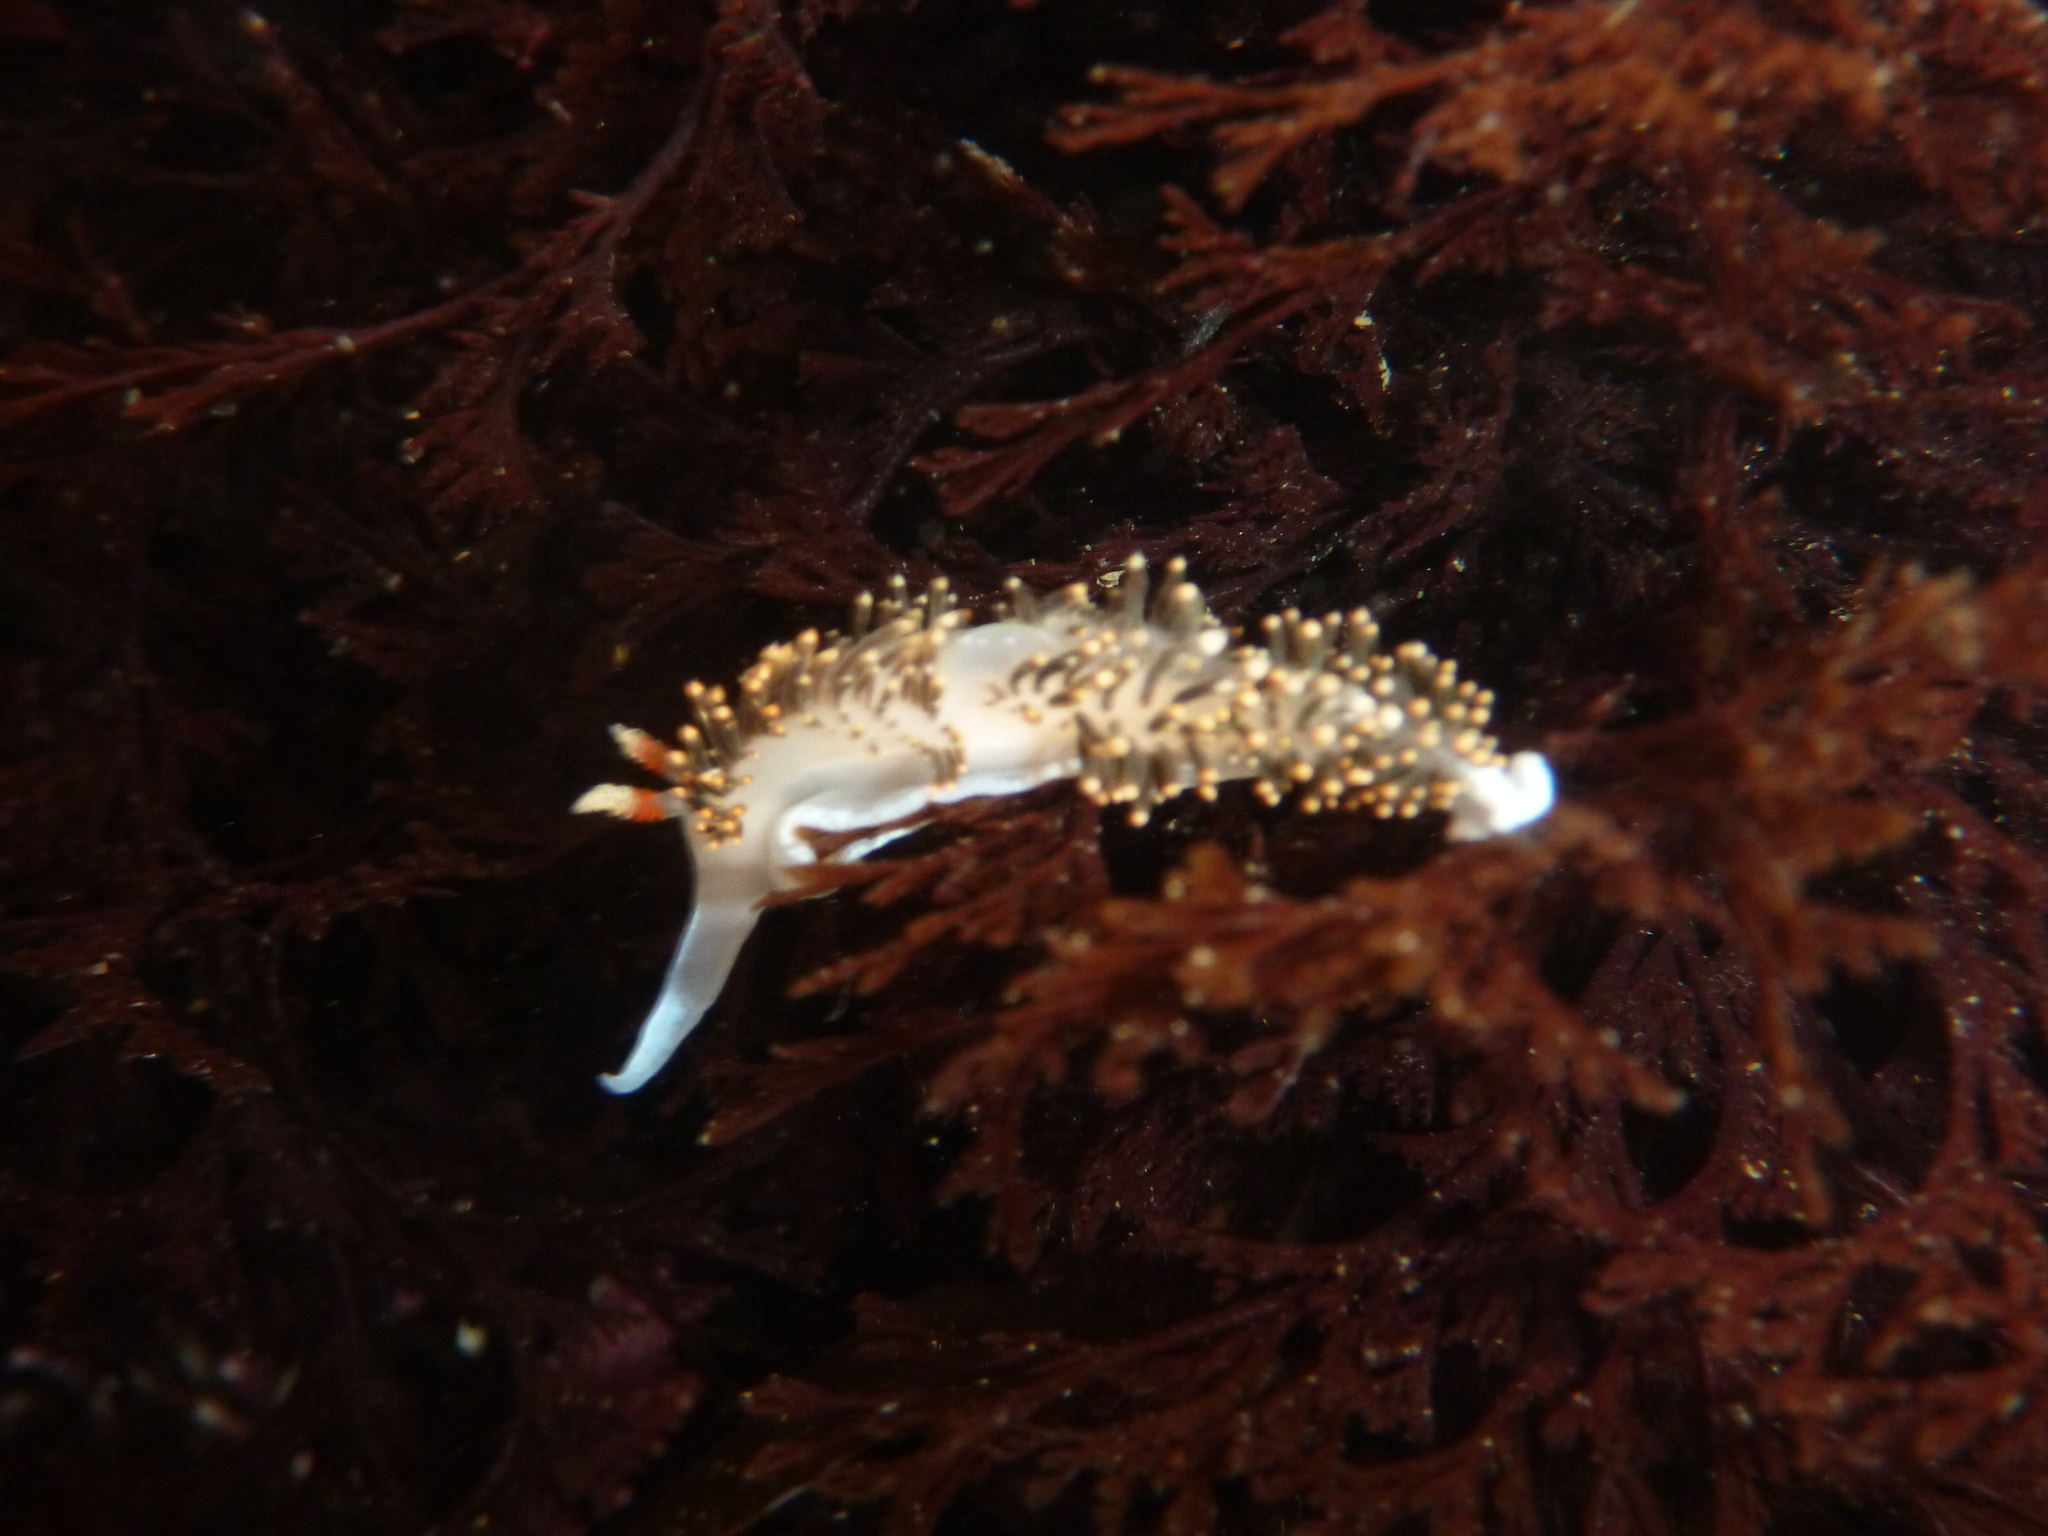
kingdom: Animalia
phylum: Mollusca
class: Gastropoda
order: Nudibranchia
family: Facelinidae
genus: Phidiana
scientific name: Phidiana hiltoni
